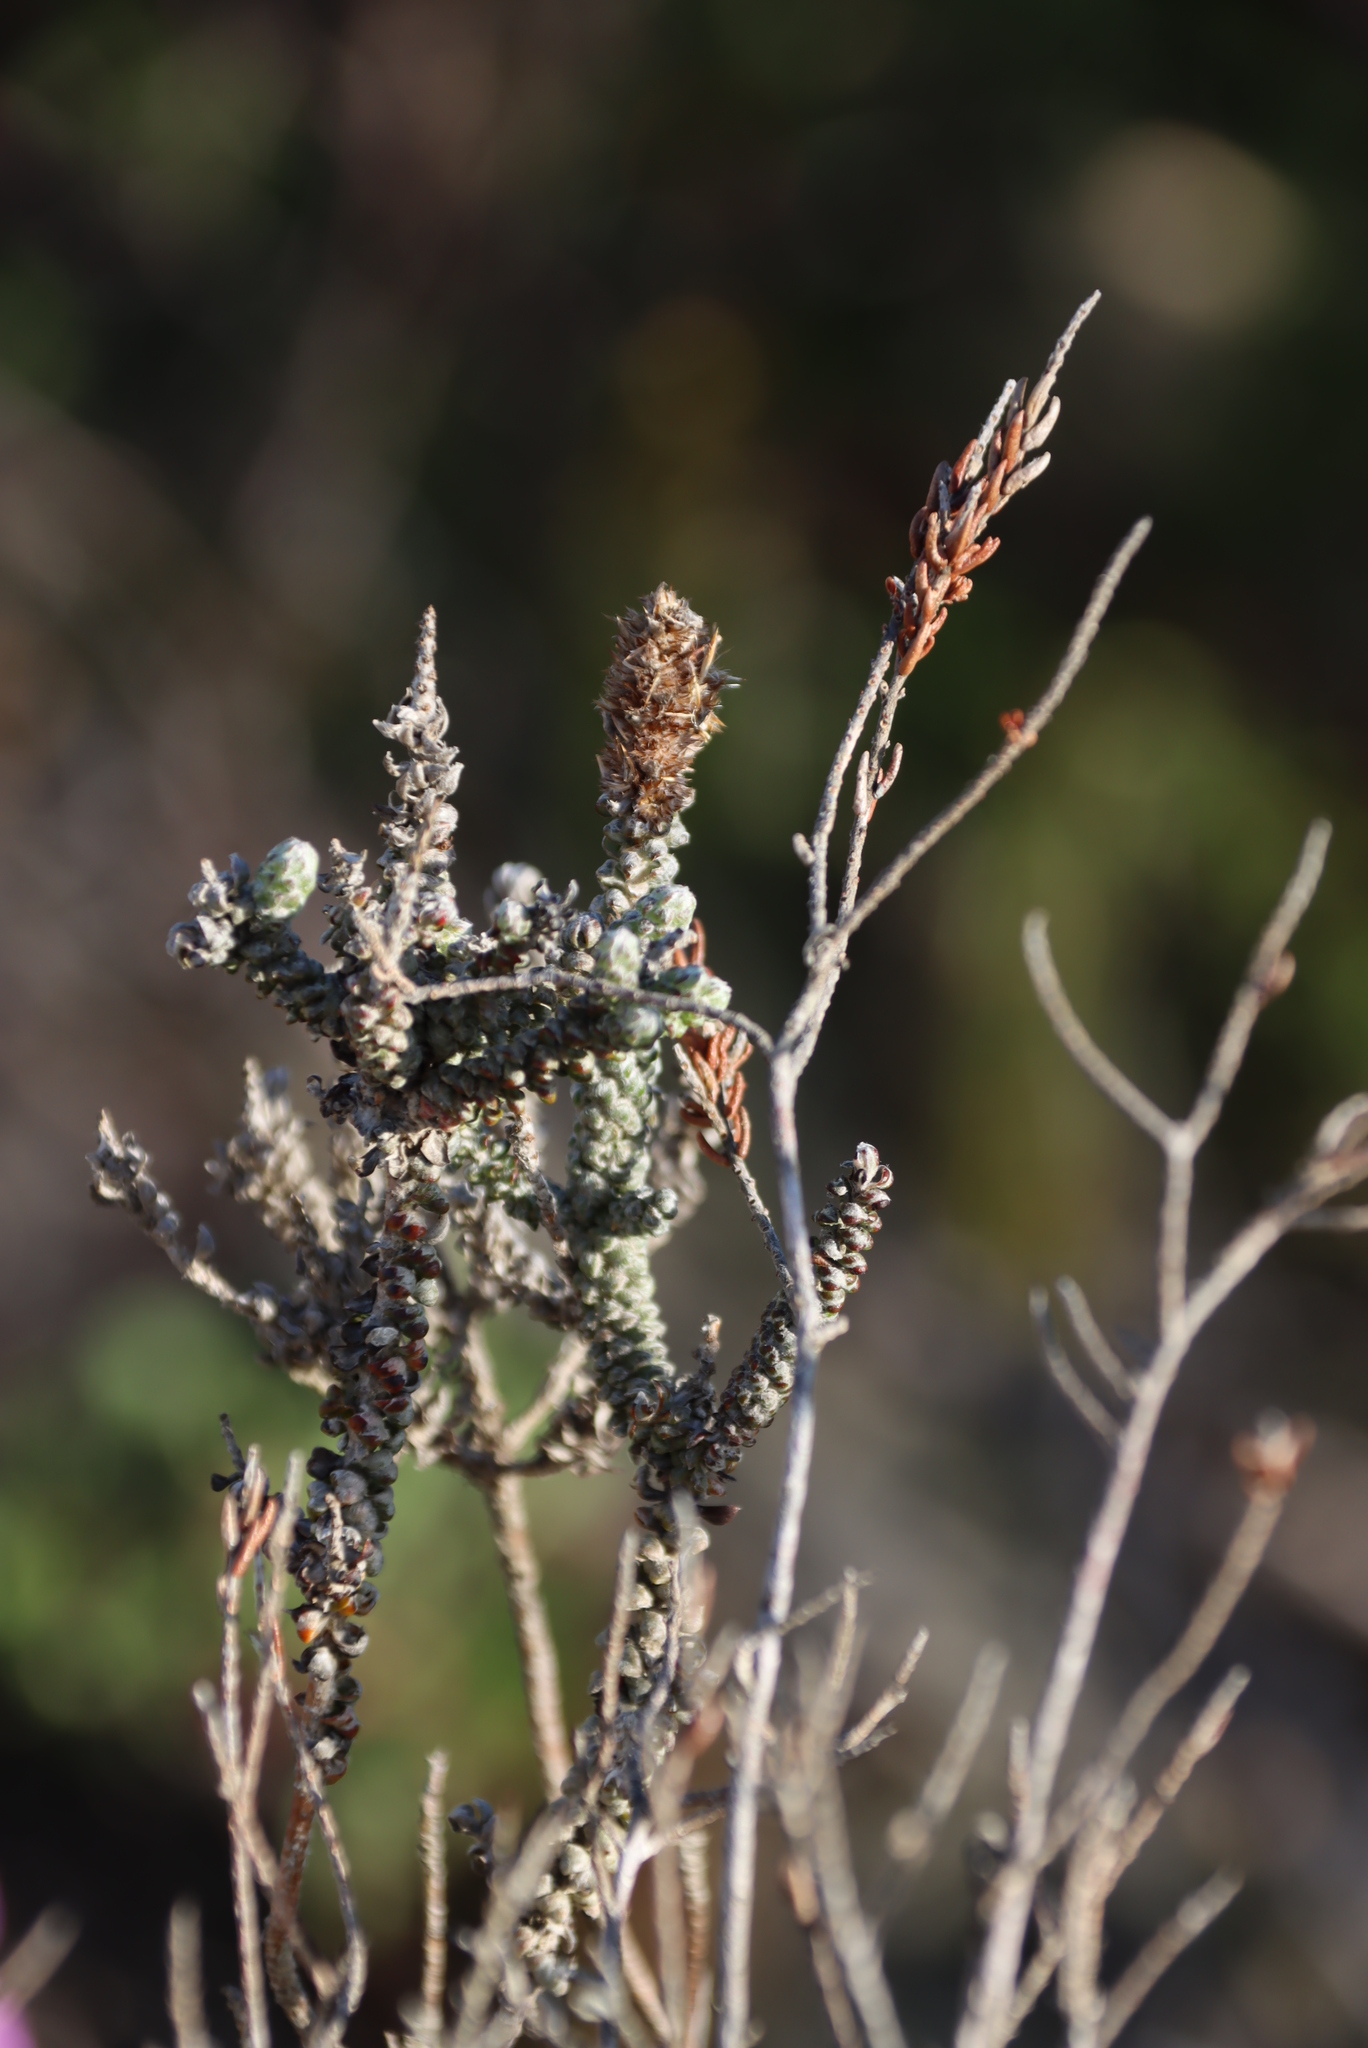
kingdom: Plantae
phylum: Tracheophyta
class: Magnoliopsida
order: Asterales
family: Asteraceae
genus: Stoebe
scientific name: Stoebe muirii
